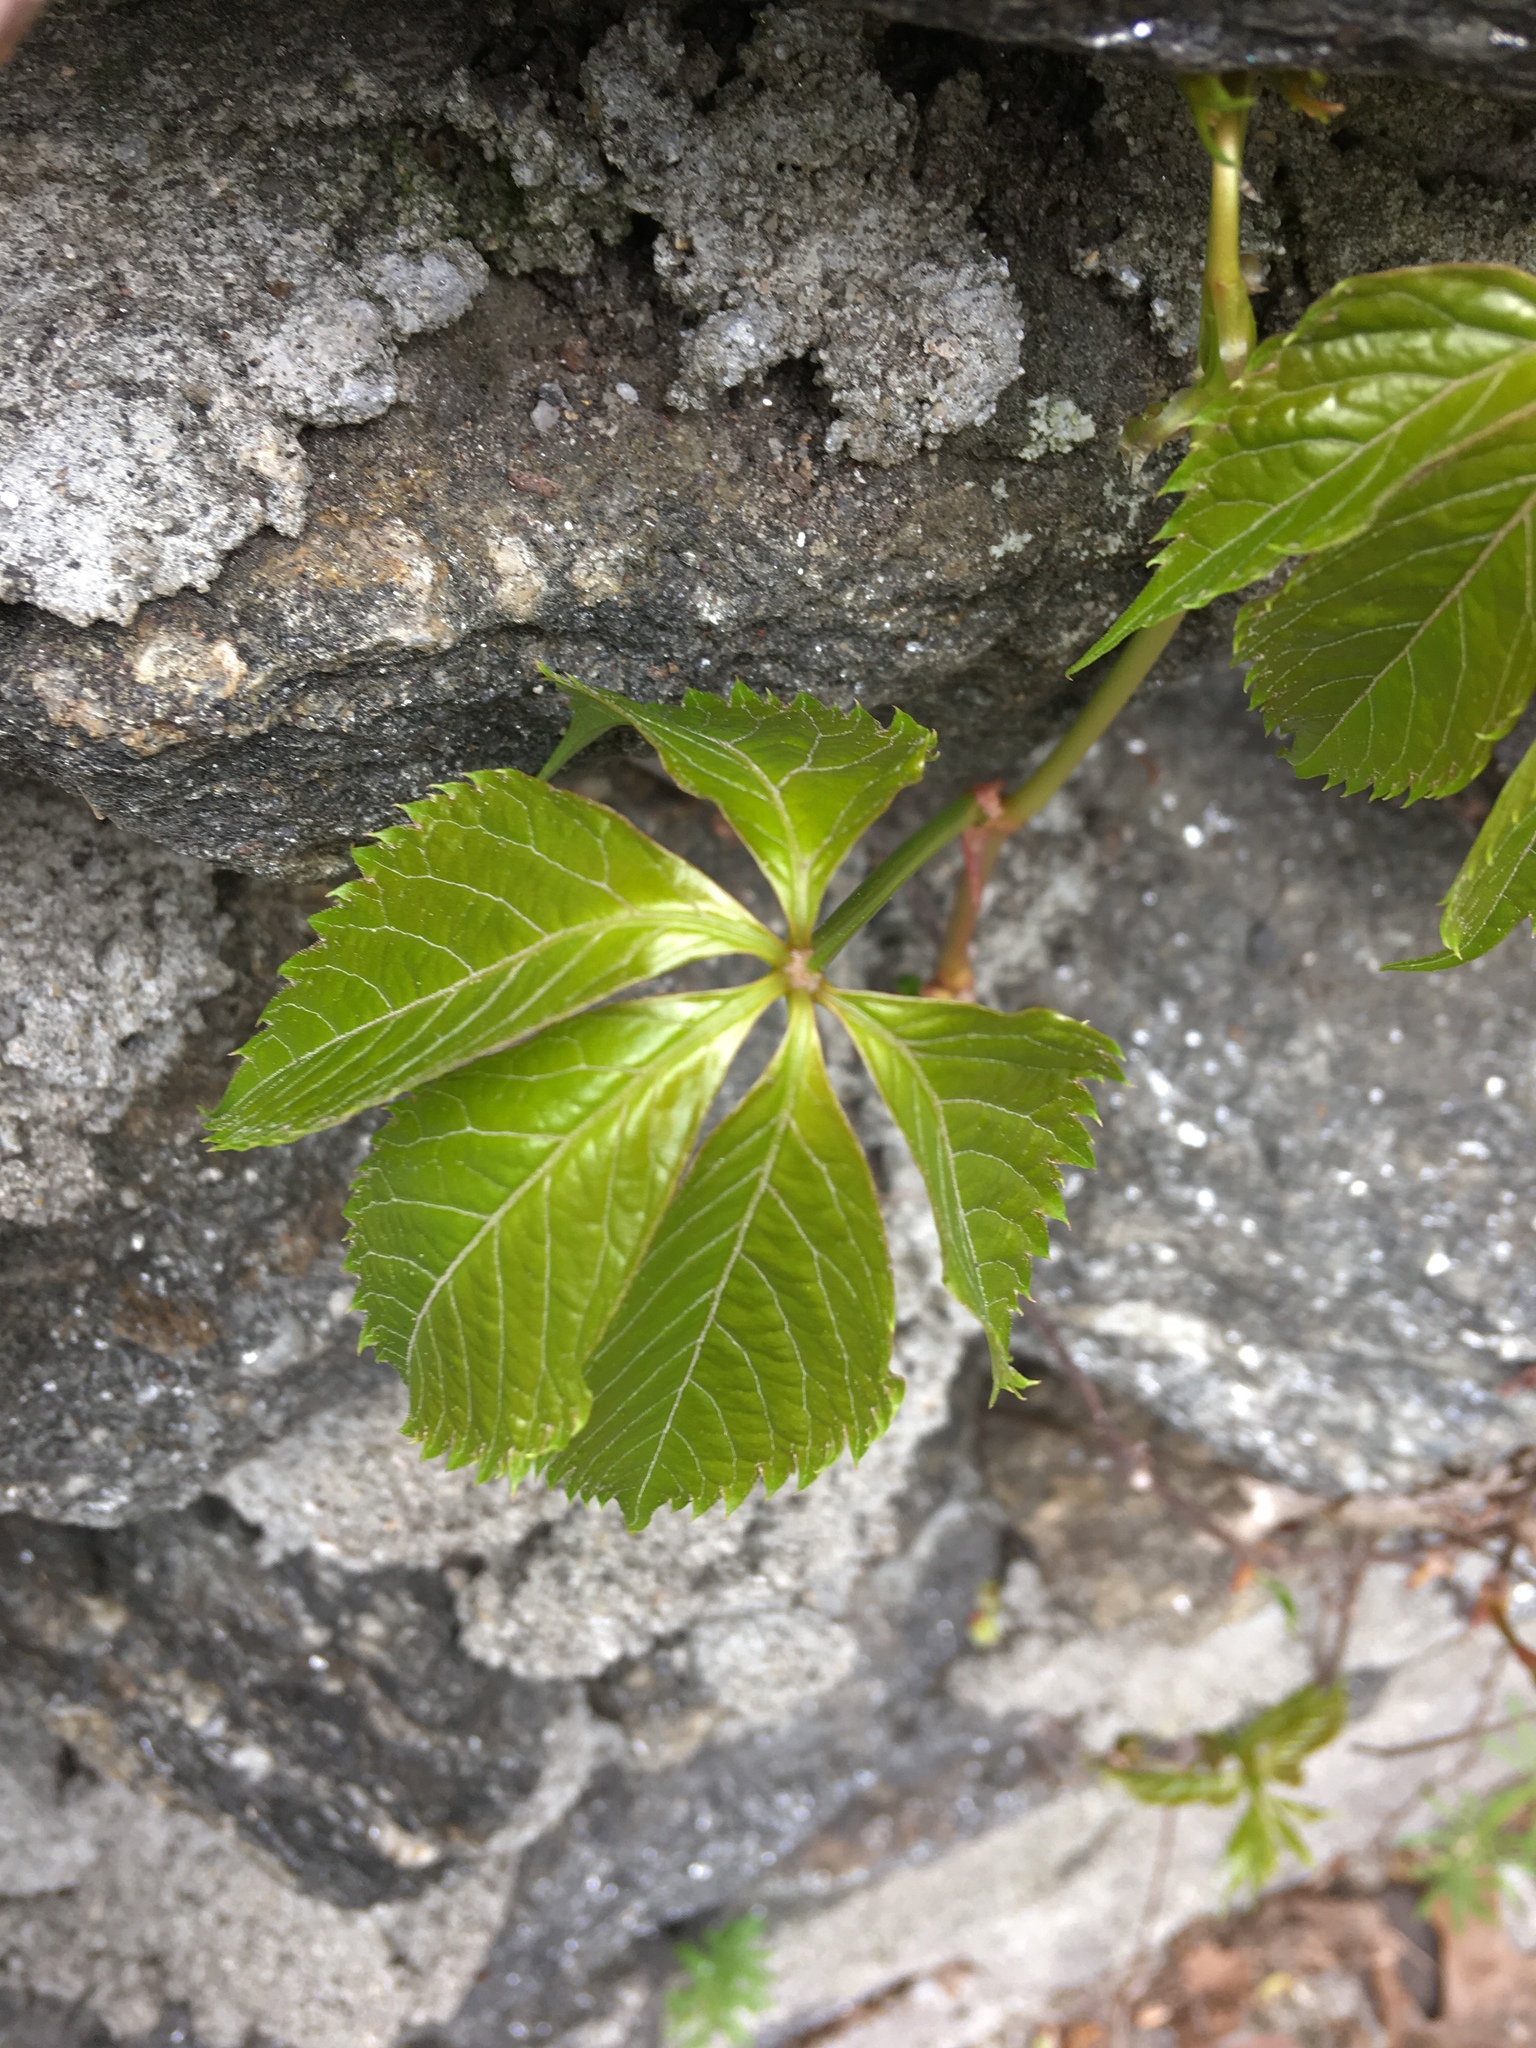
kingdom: Plantae
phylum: Tracheophyta
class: Magnoliopsida
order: Vitales
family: Vitaceae
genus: Parthenocissus
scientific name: Parthenocissus quinquefolia
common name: Virginia-creeper
